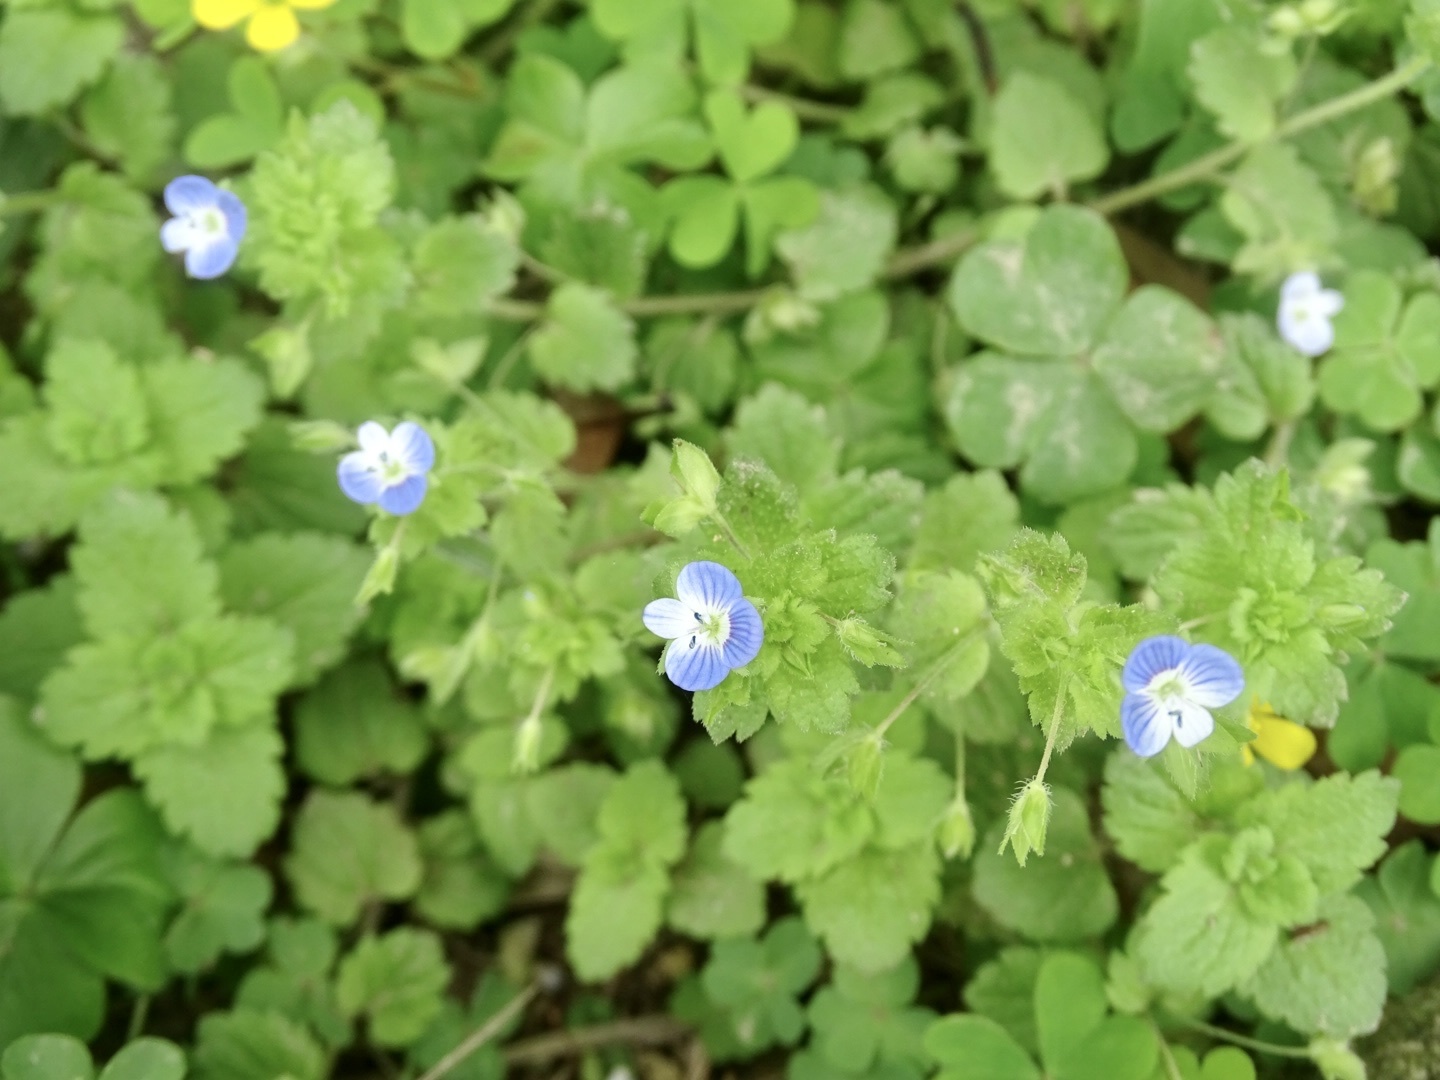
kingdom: Plantae
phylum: Tracheophyta
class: Magnoliopsida
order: Lamiales
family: Plantaginaceae
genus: Veronica
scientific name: Veronica persica
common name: Common field-speedwell
